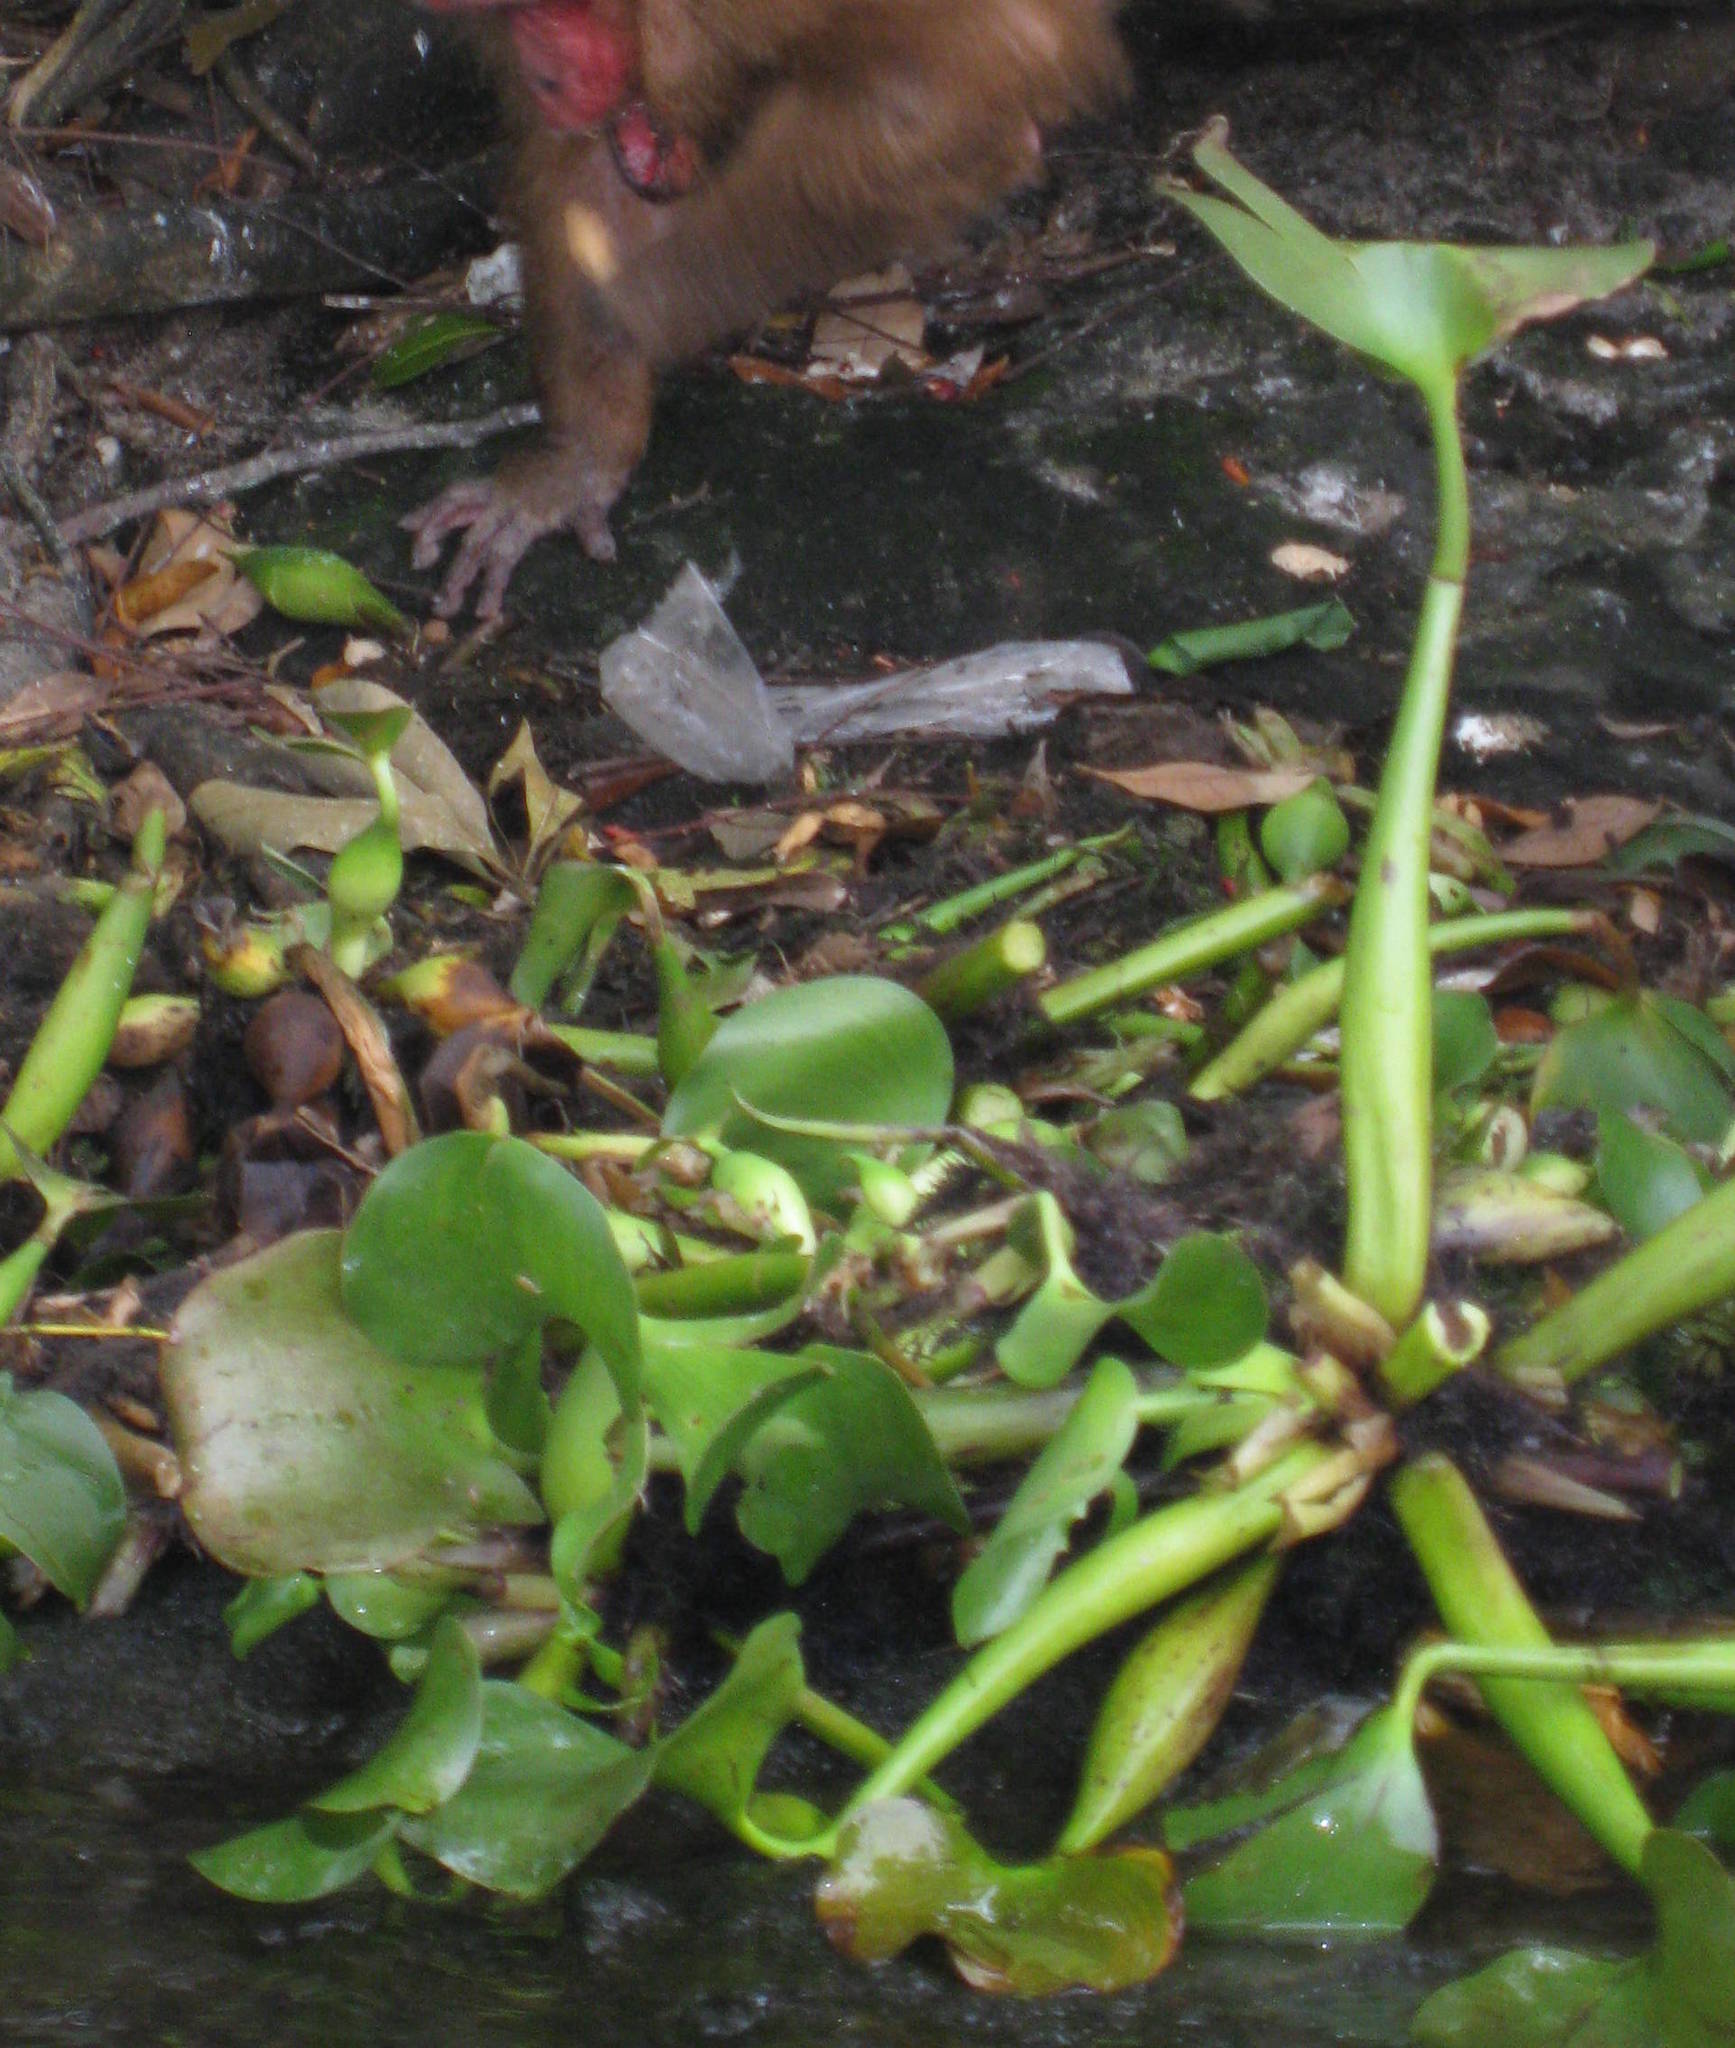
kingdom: Plantae
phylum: Tracheophyta
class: Liliopsida
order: Commelinales
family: Pontederiaceae
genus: Pontederia
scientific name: Pontederia crassipes
